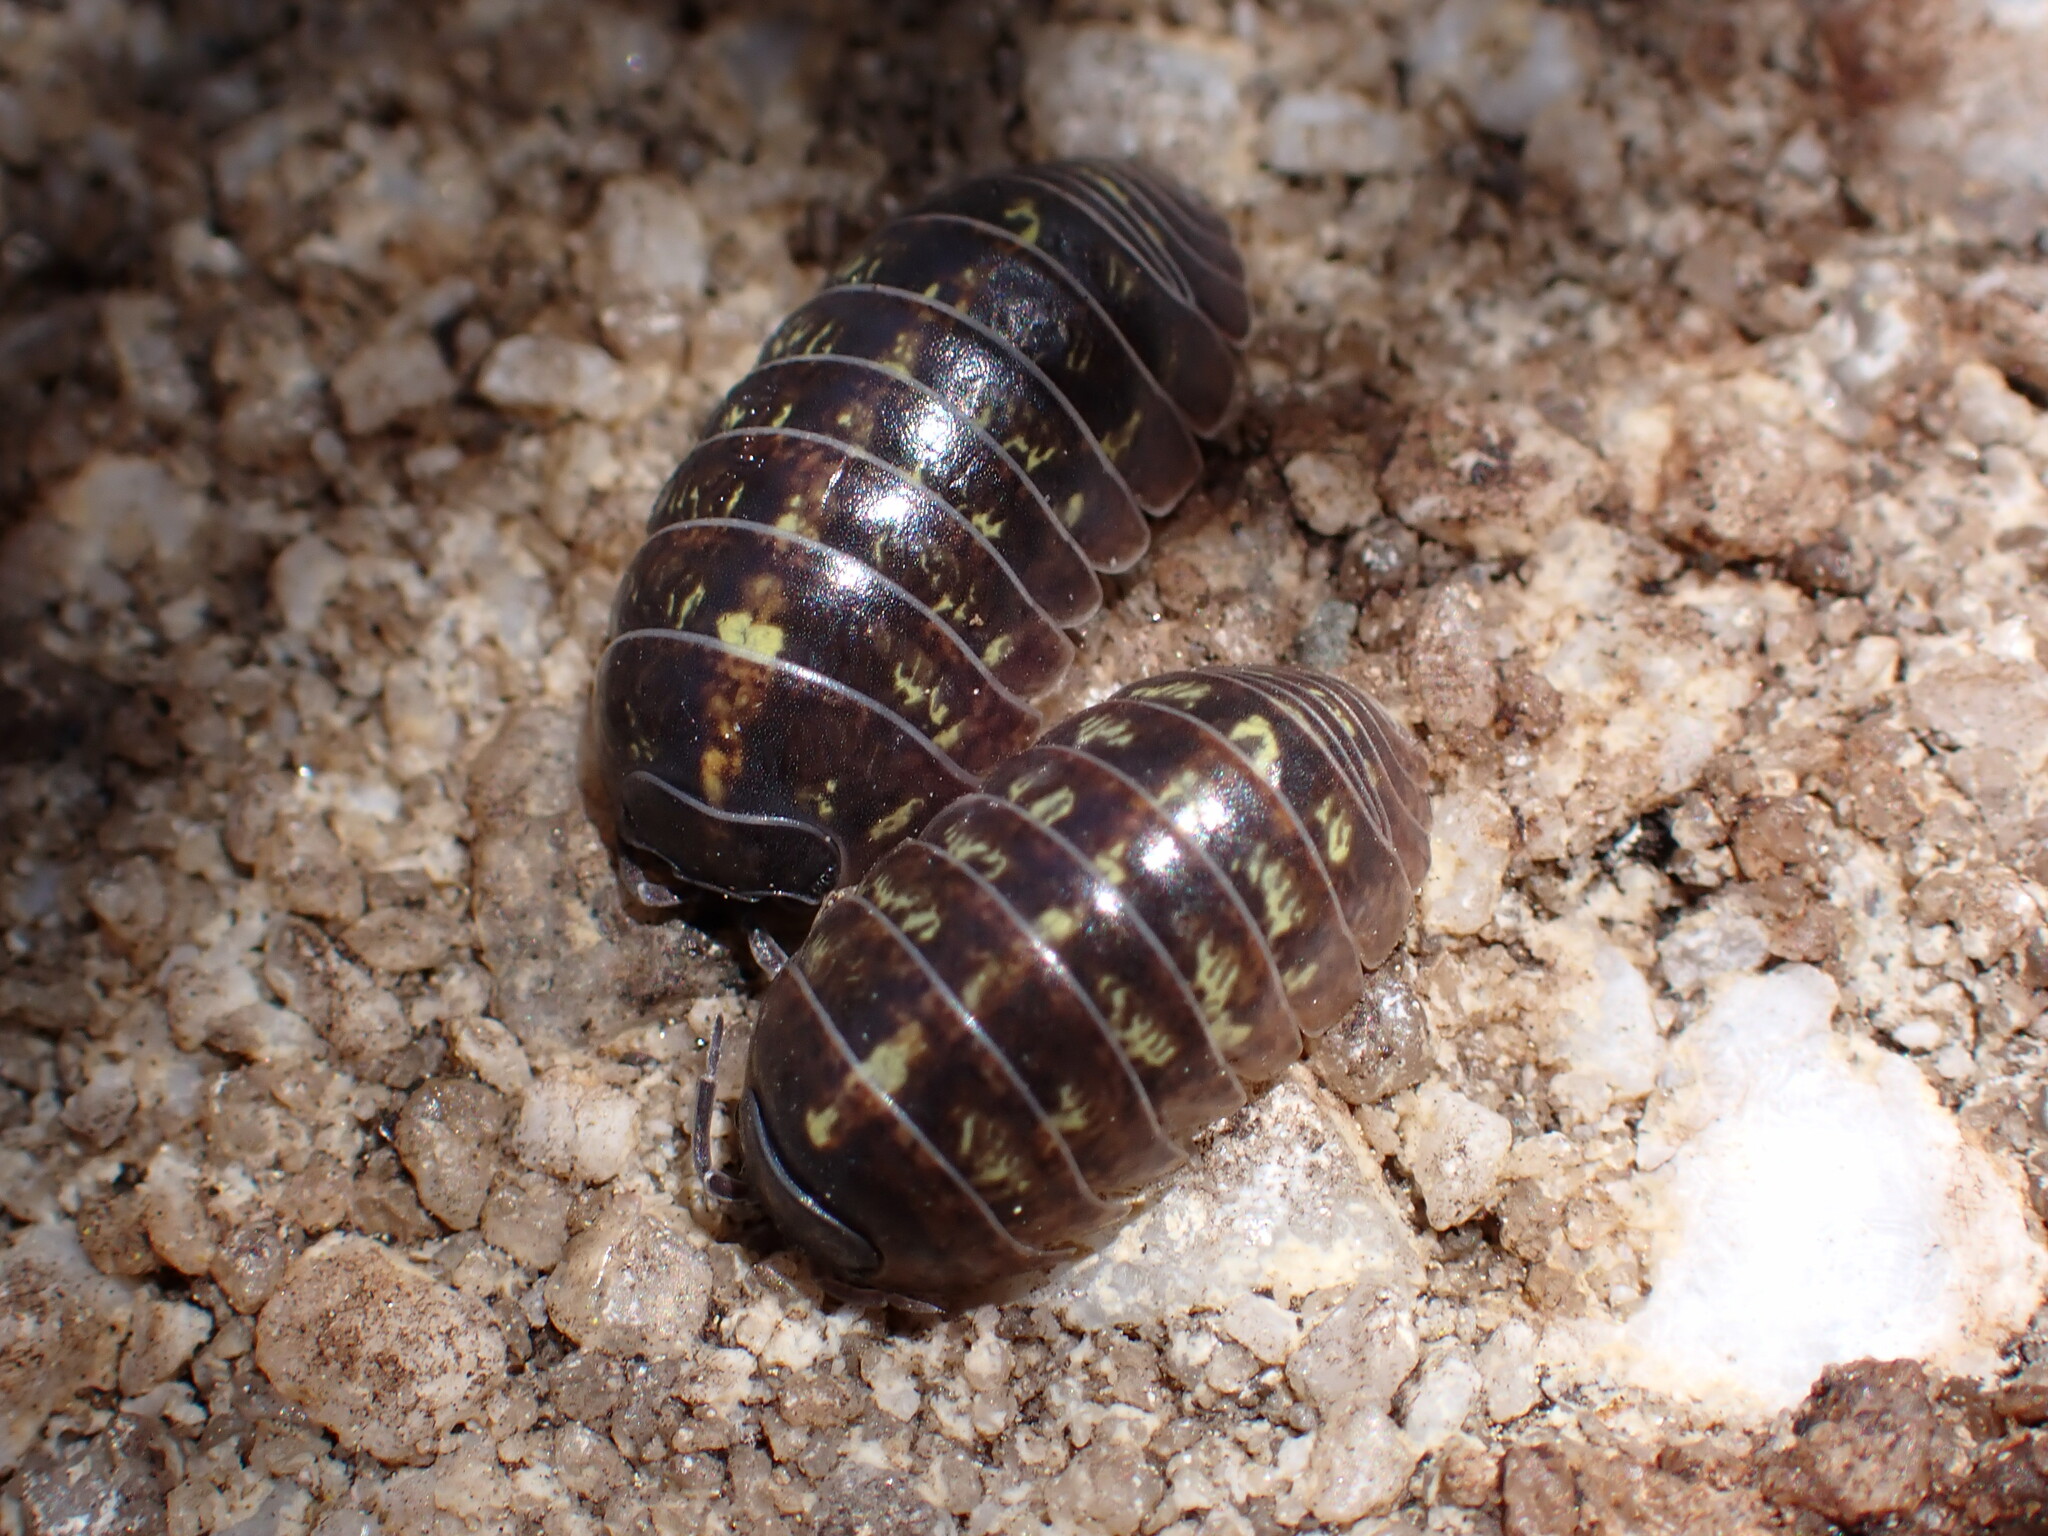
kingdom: Animalia
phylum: Arthropoda
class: Malacostraca
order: Isopoda
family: Armadillidiidae
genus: Armadillidium
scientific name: Armadillidium vulgare
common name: Common pill woodlouse
